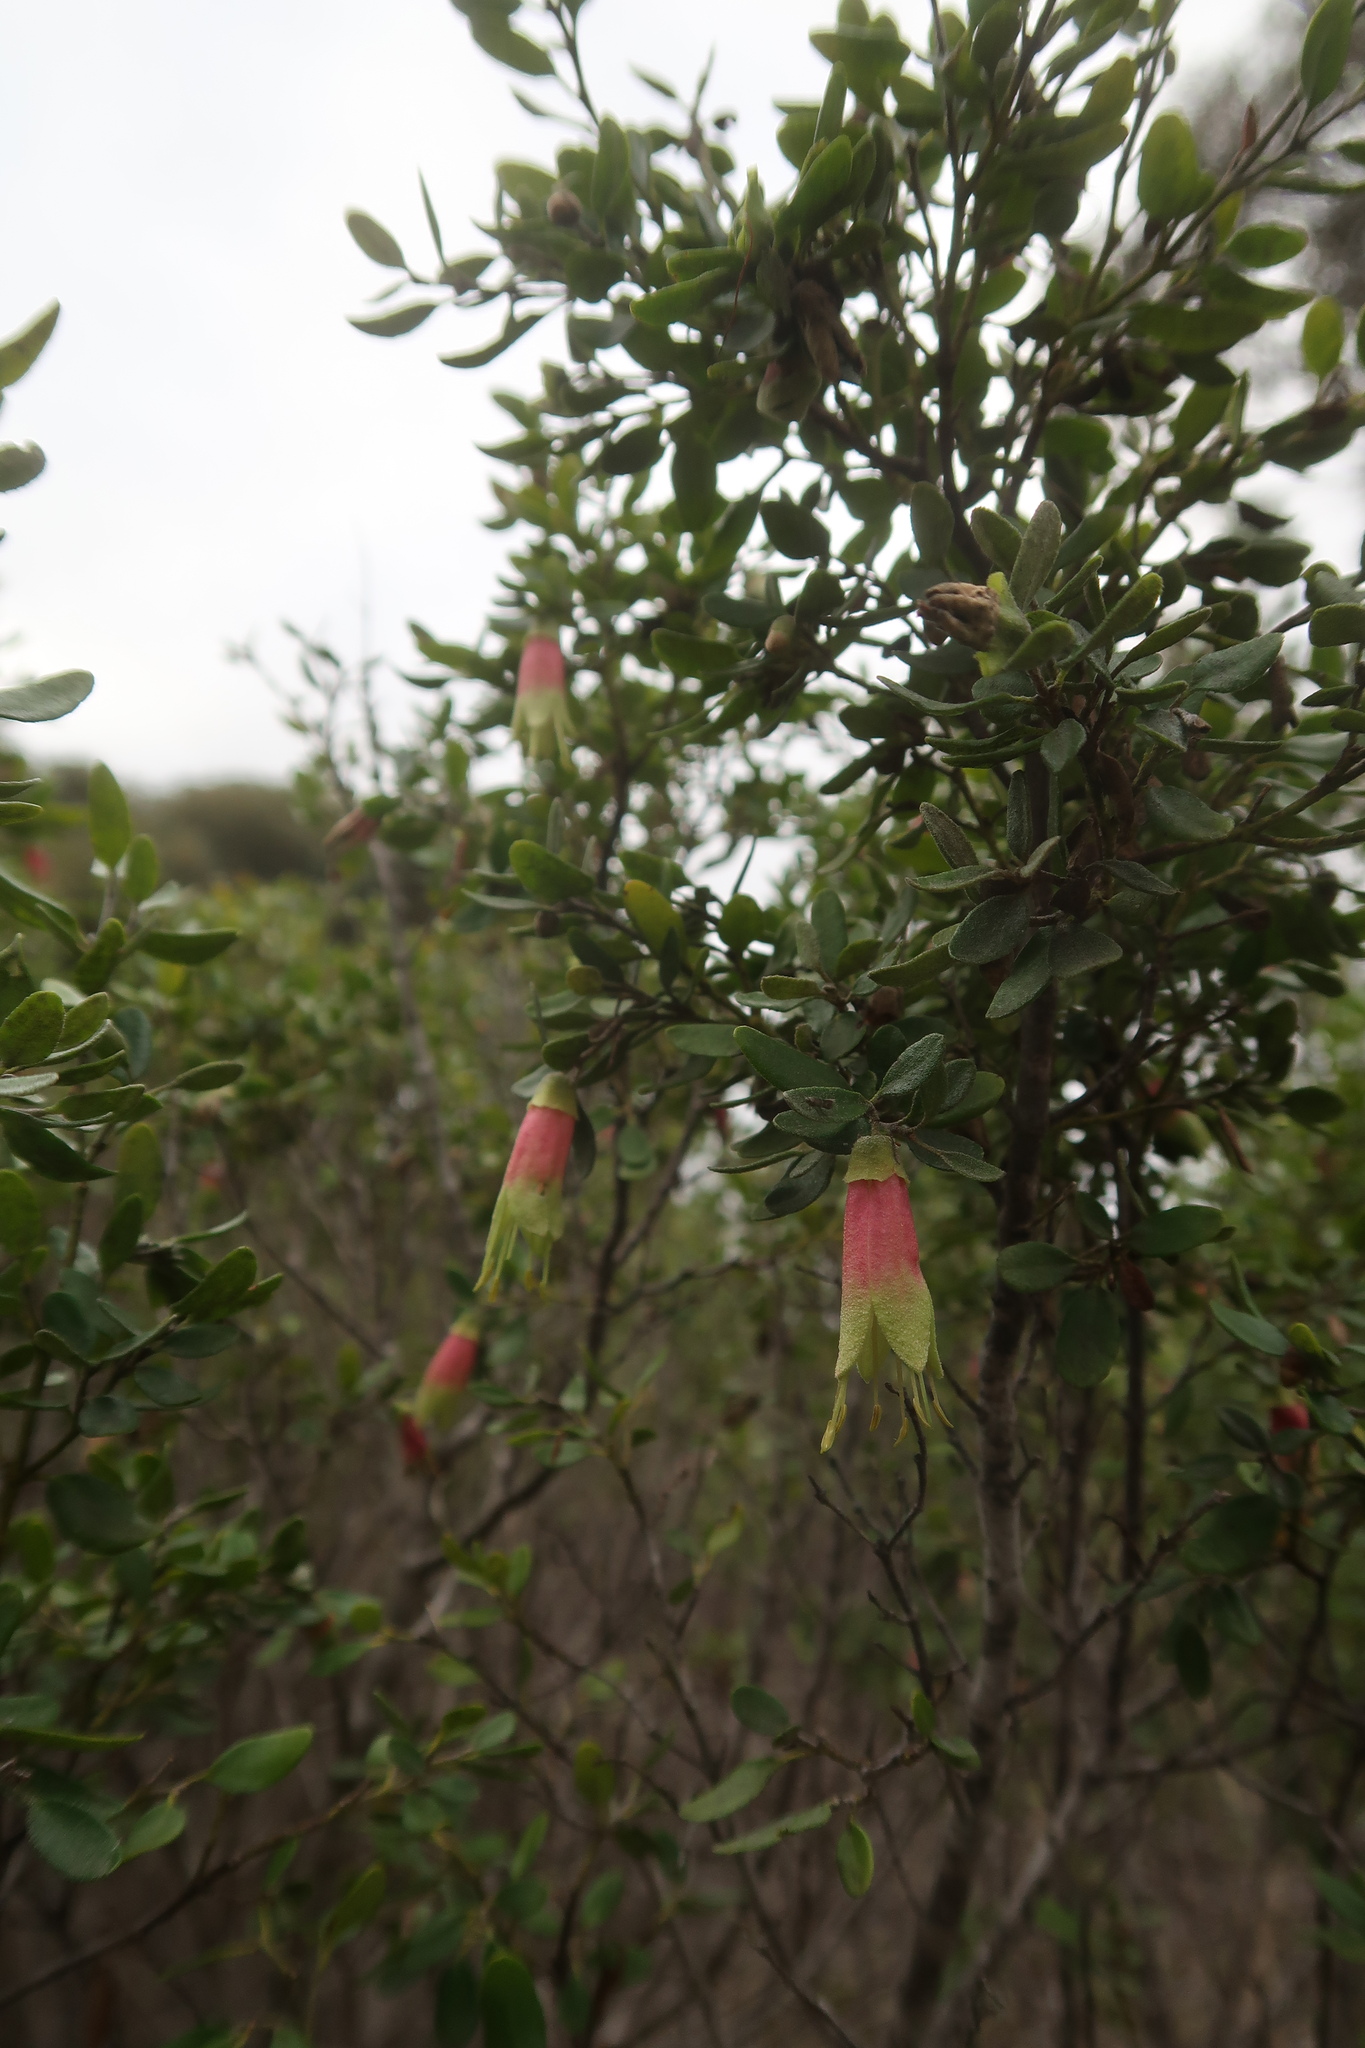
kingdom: Plantae
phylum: Tracheophyta
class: Magnoliopsida
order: Sapindales
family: Rutaceae
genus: Correa
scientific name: Correa glabra
